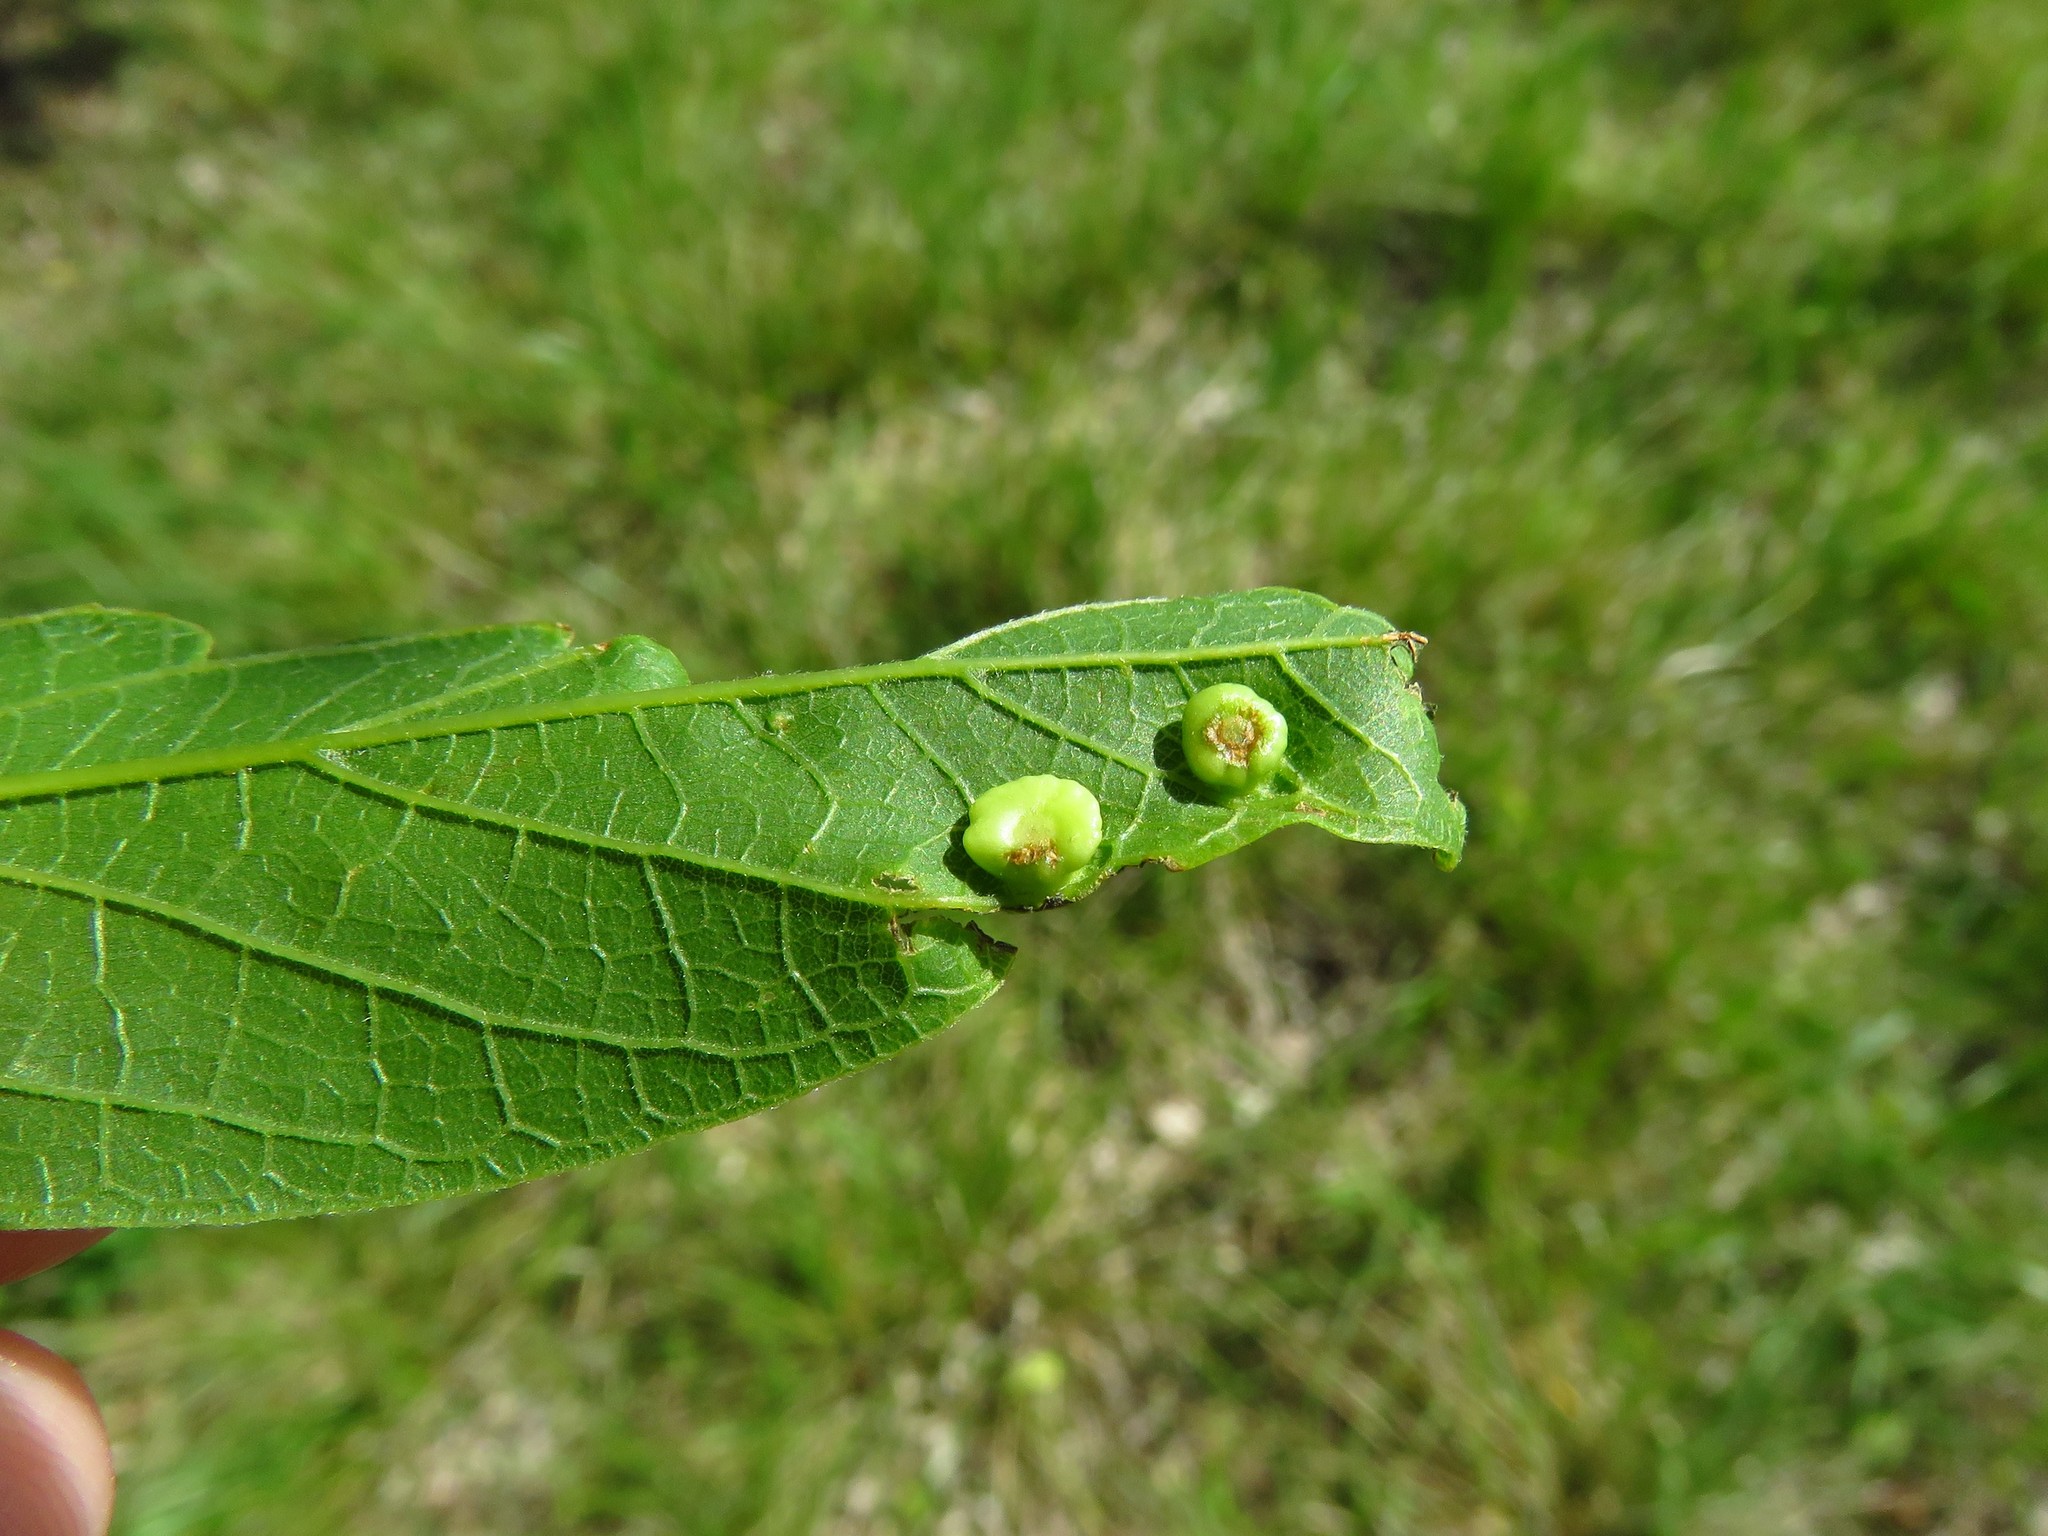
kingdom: Animalia
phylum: Arthropoda
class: Insecta
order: Hemiptera
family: Aphalaridae
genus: Pachypsylla
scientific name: Pachypsylla celtidismamma
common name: Hackberry nipplegall psyllid
